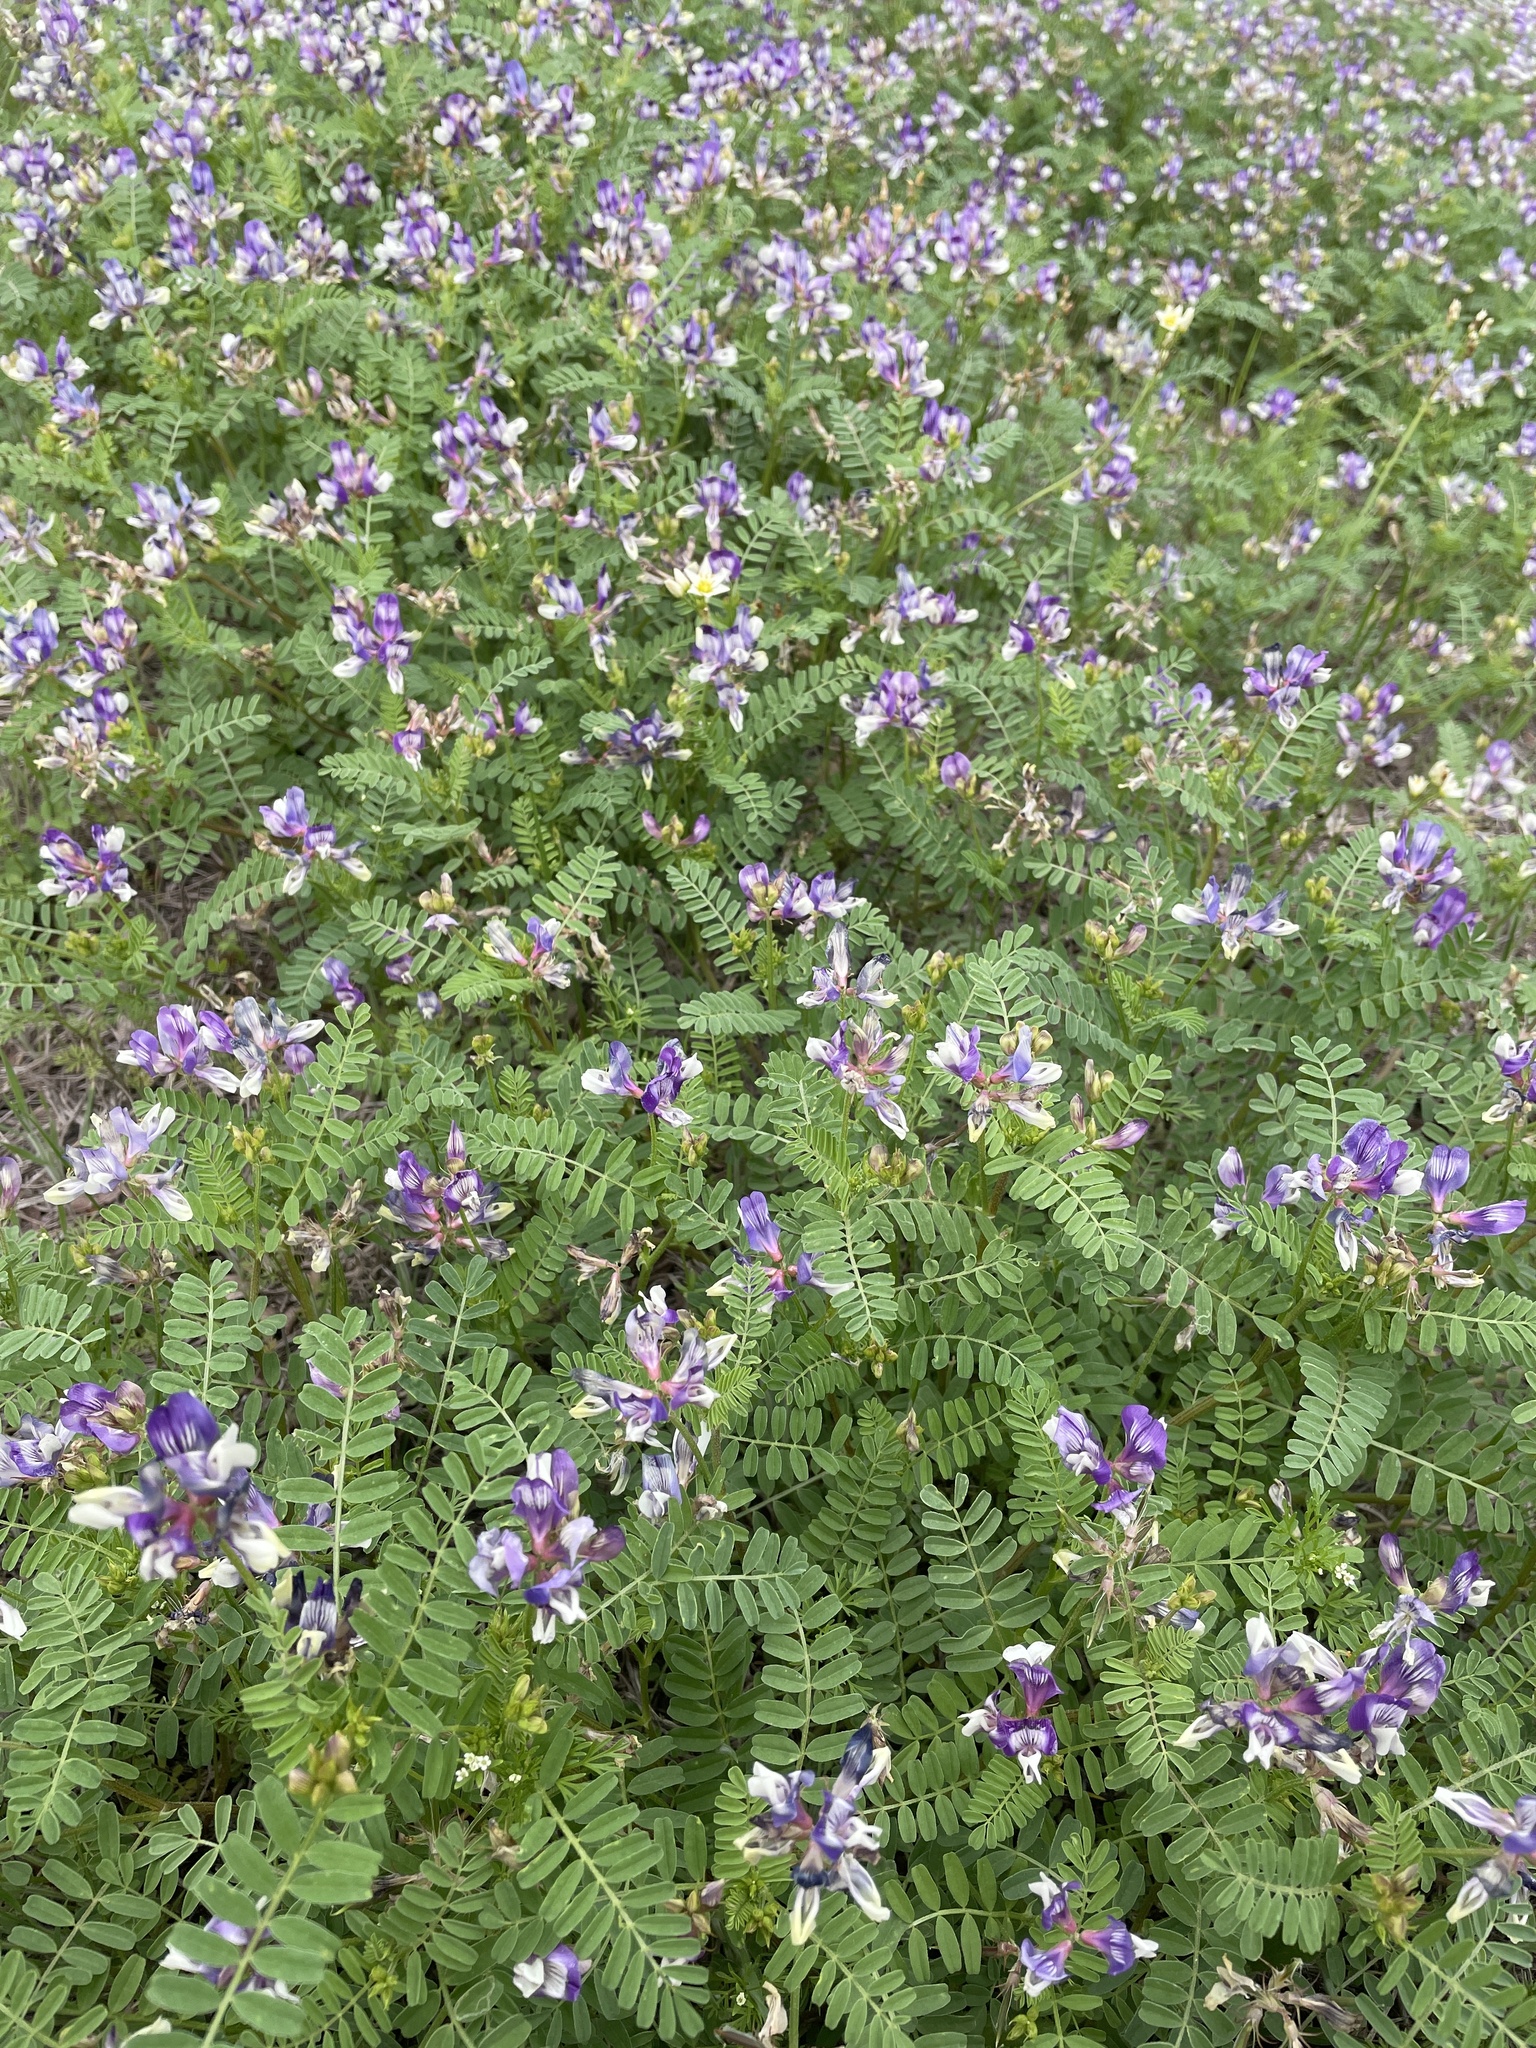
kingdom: Plantae
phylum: Tracheophyta
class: Magnoliopsida
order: Fabales
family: Fabaceae
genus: Astragalus
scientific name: Astragalus lindheimeri
